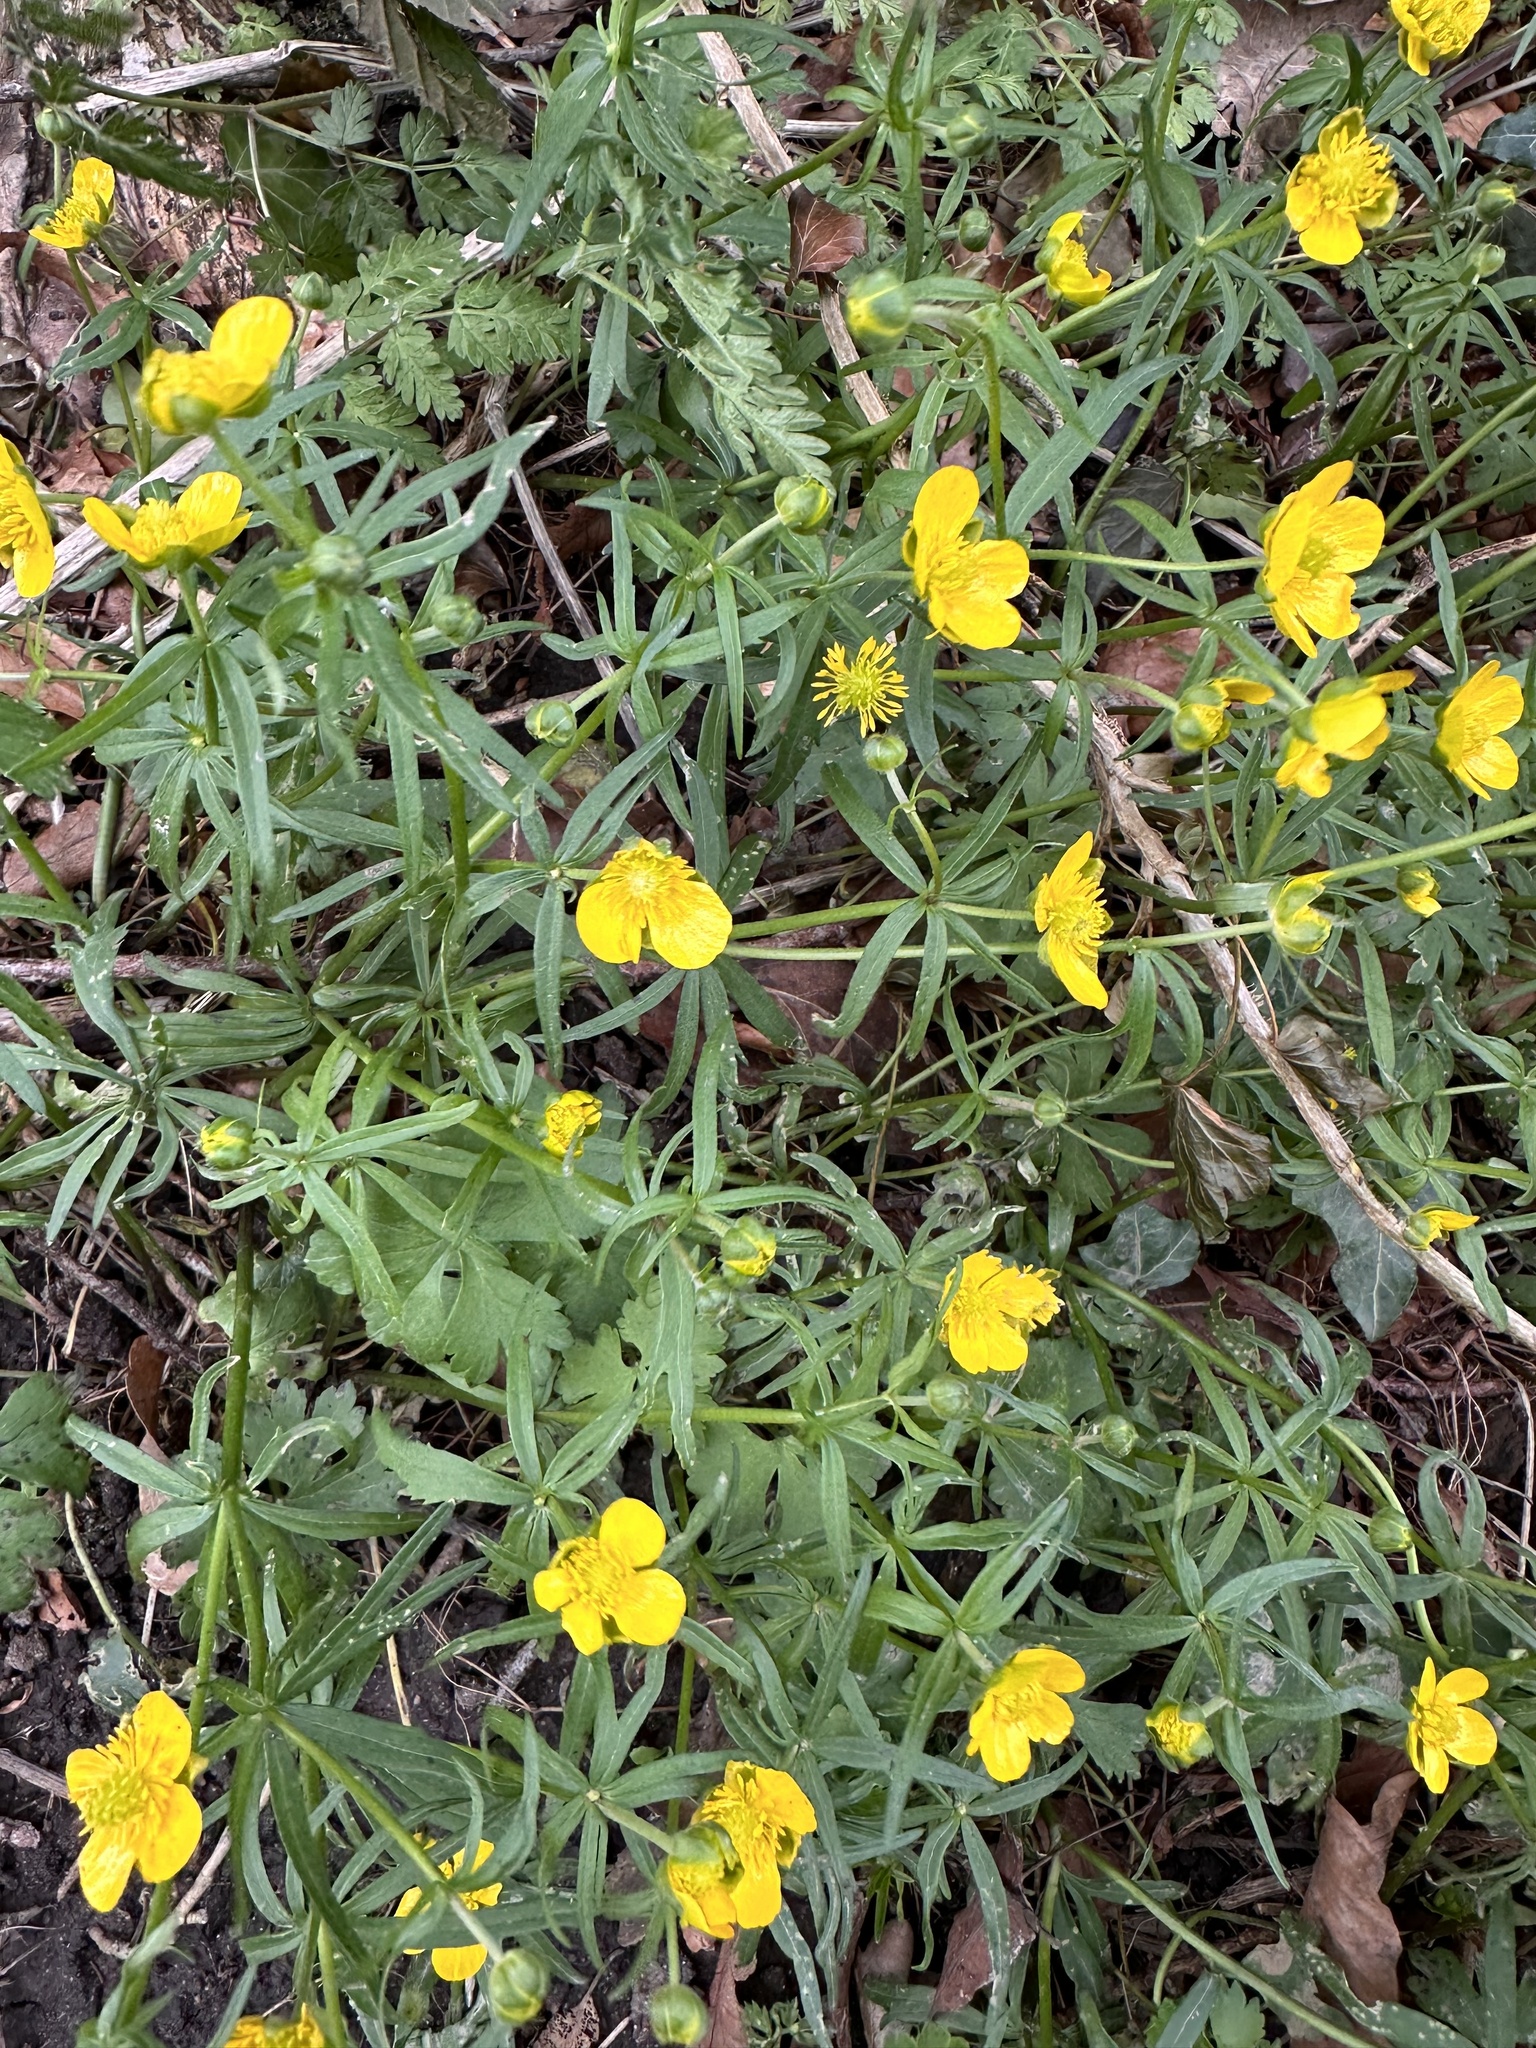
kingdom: Plantae
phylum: Tracheophyta
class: Magnoliopsida
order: Ranunculales
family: Ranunculaceae
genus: Ranunculus
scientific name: Ranunculus auricomus
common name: Goldilocks buttercup
